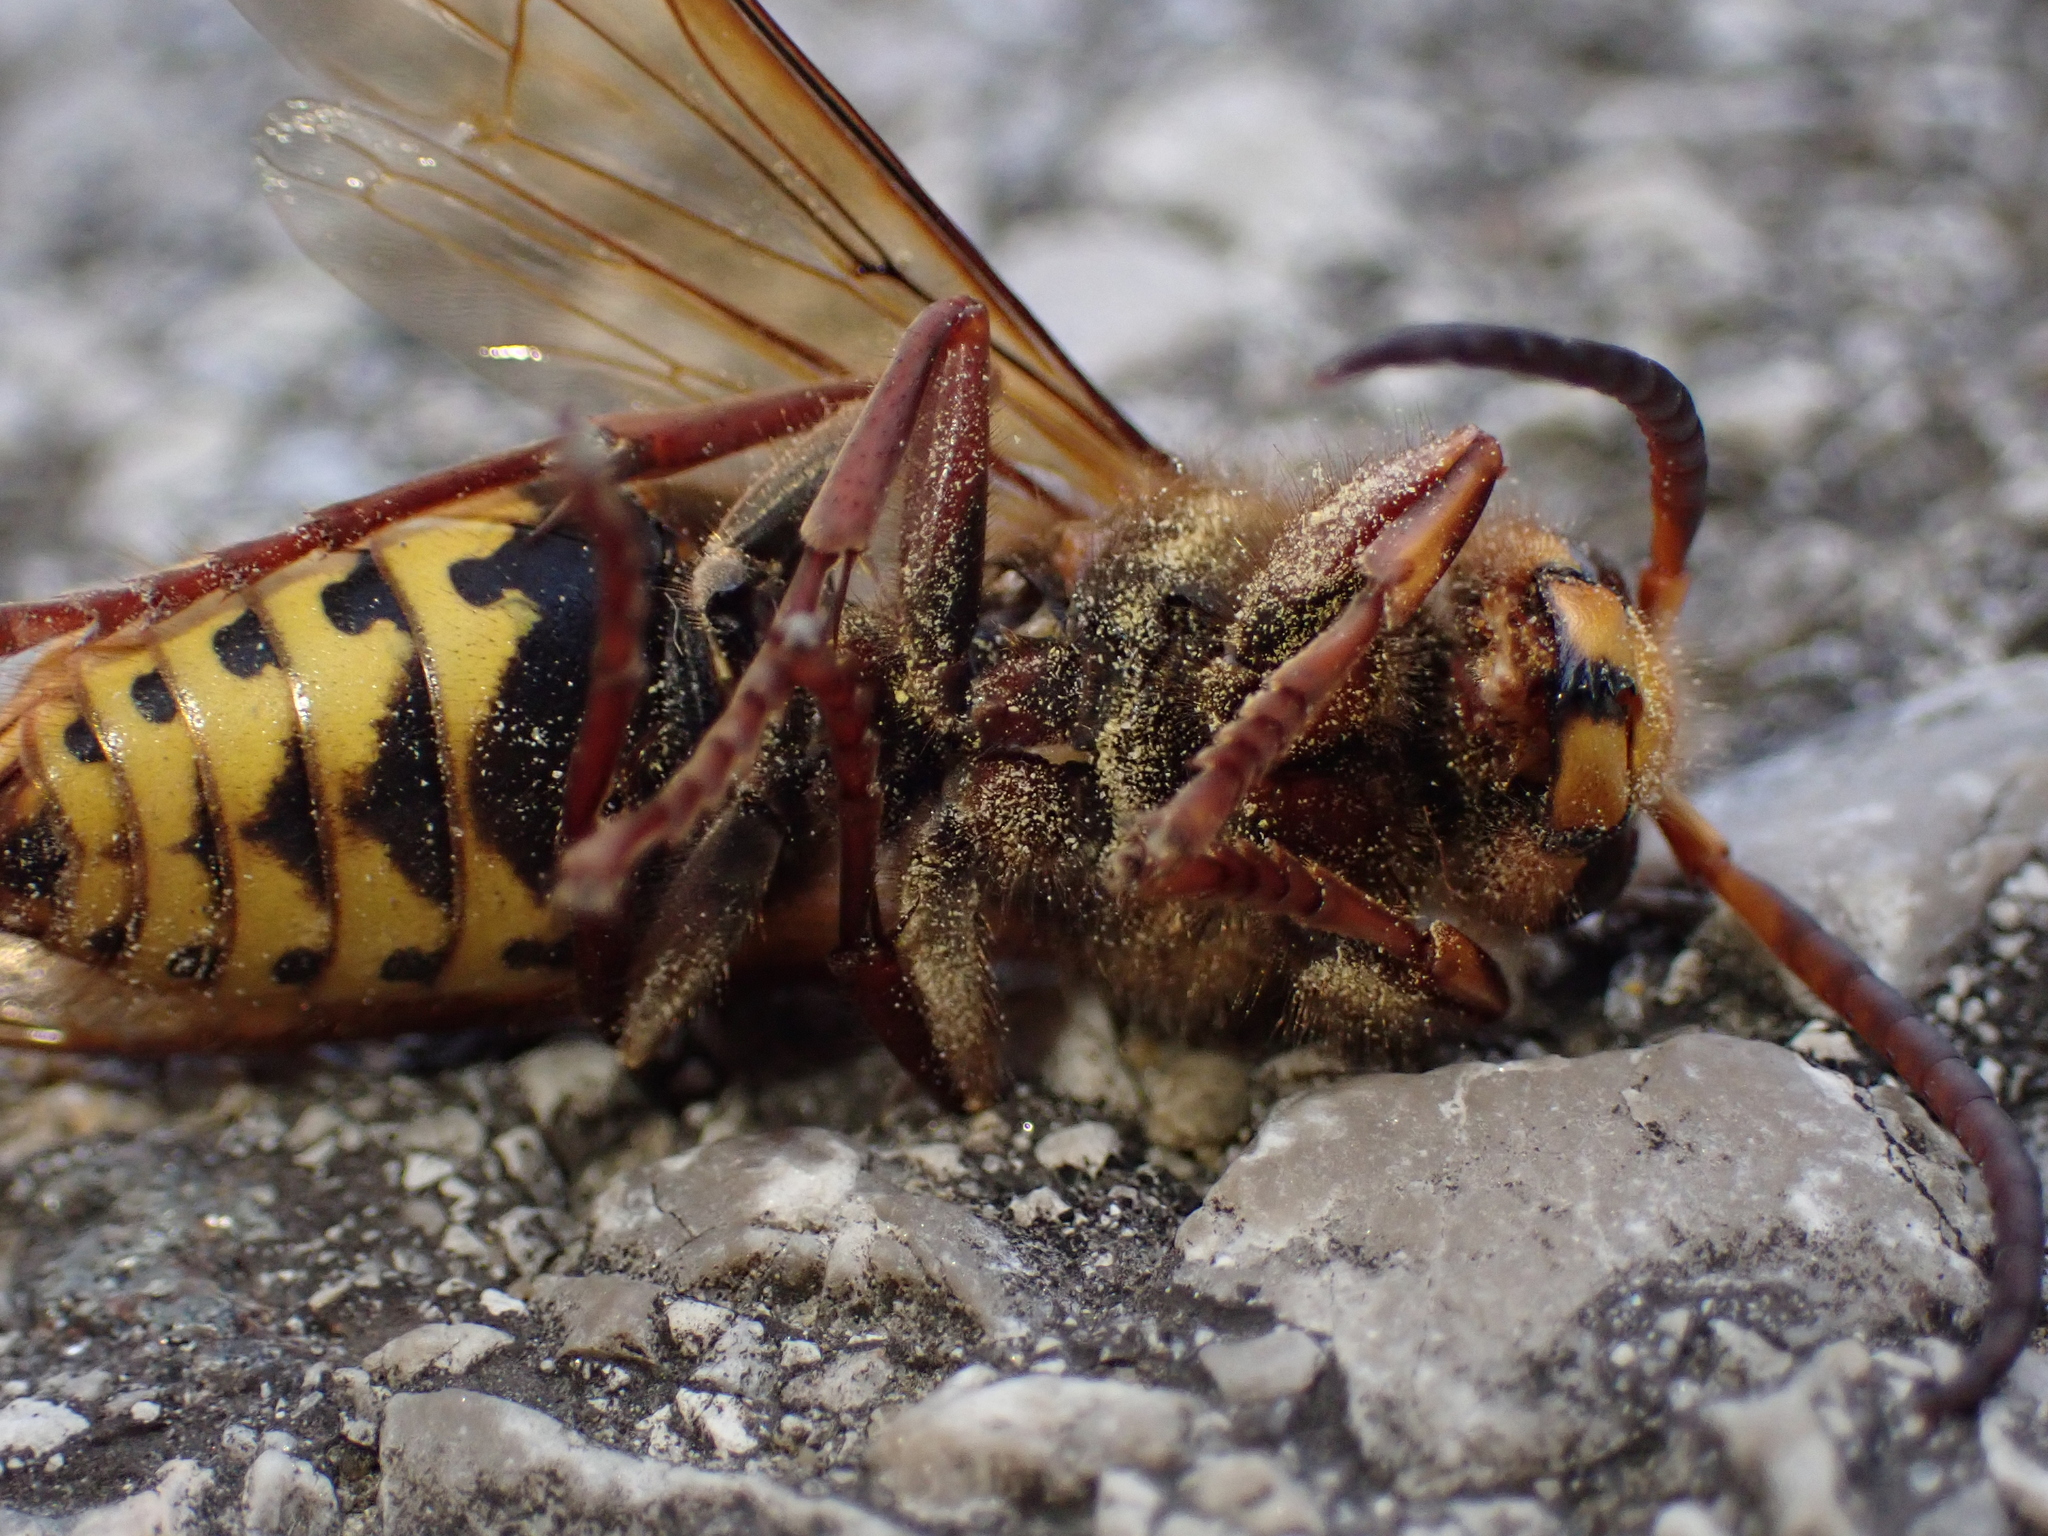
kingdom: Animalia
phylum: Arthropoda
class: Insecta
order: Hymenoptera
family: Vespidae
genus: Vespa
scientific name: Vespa crabro
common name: Hornet
